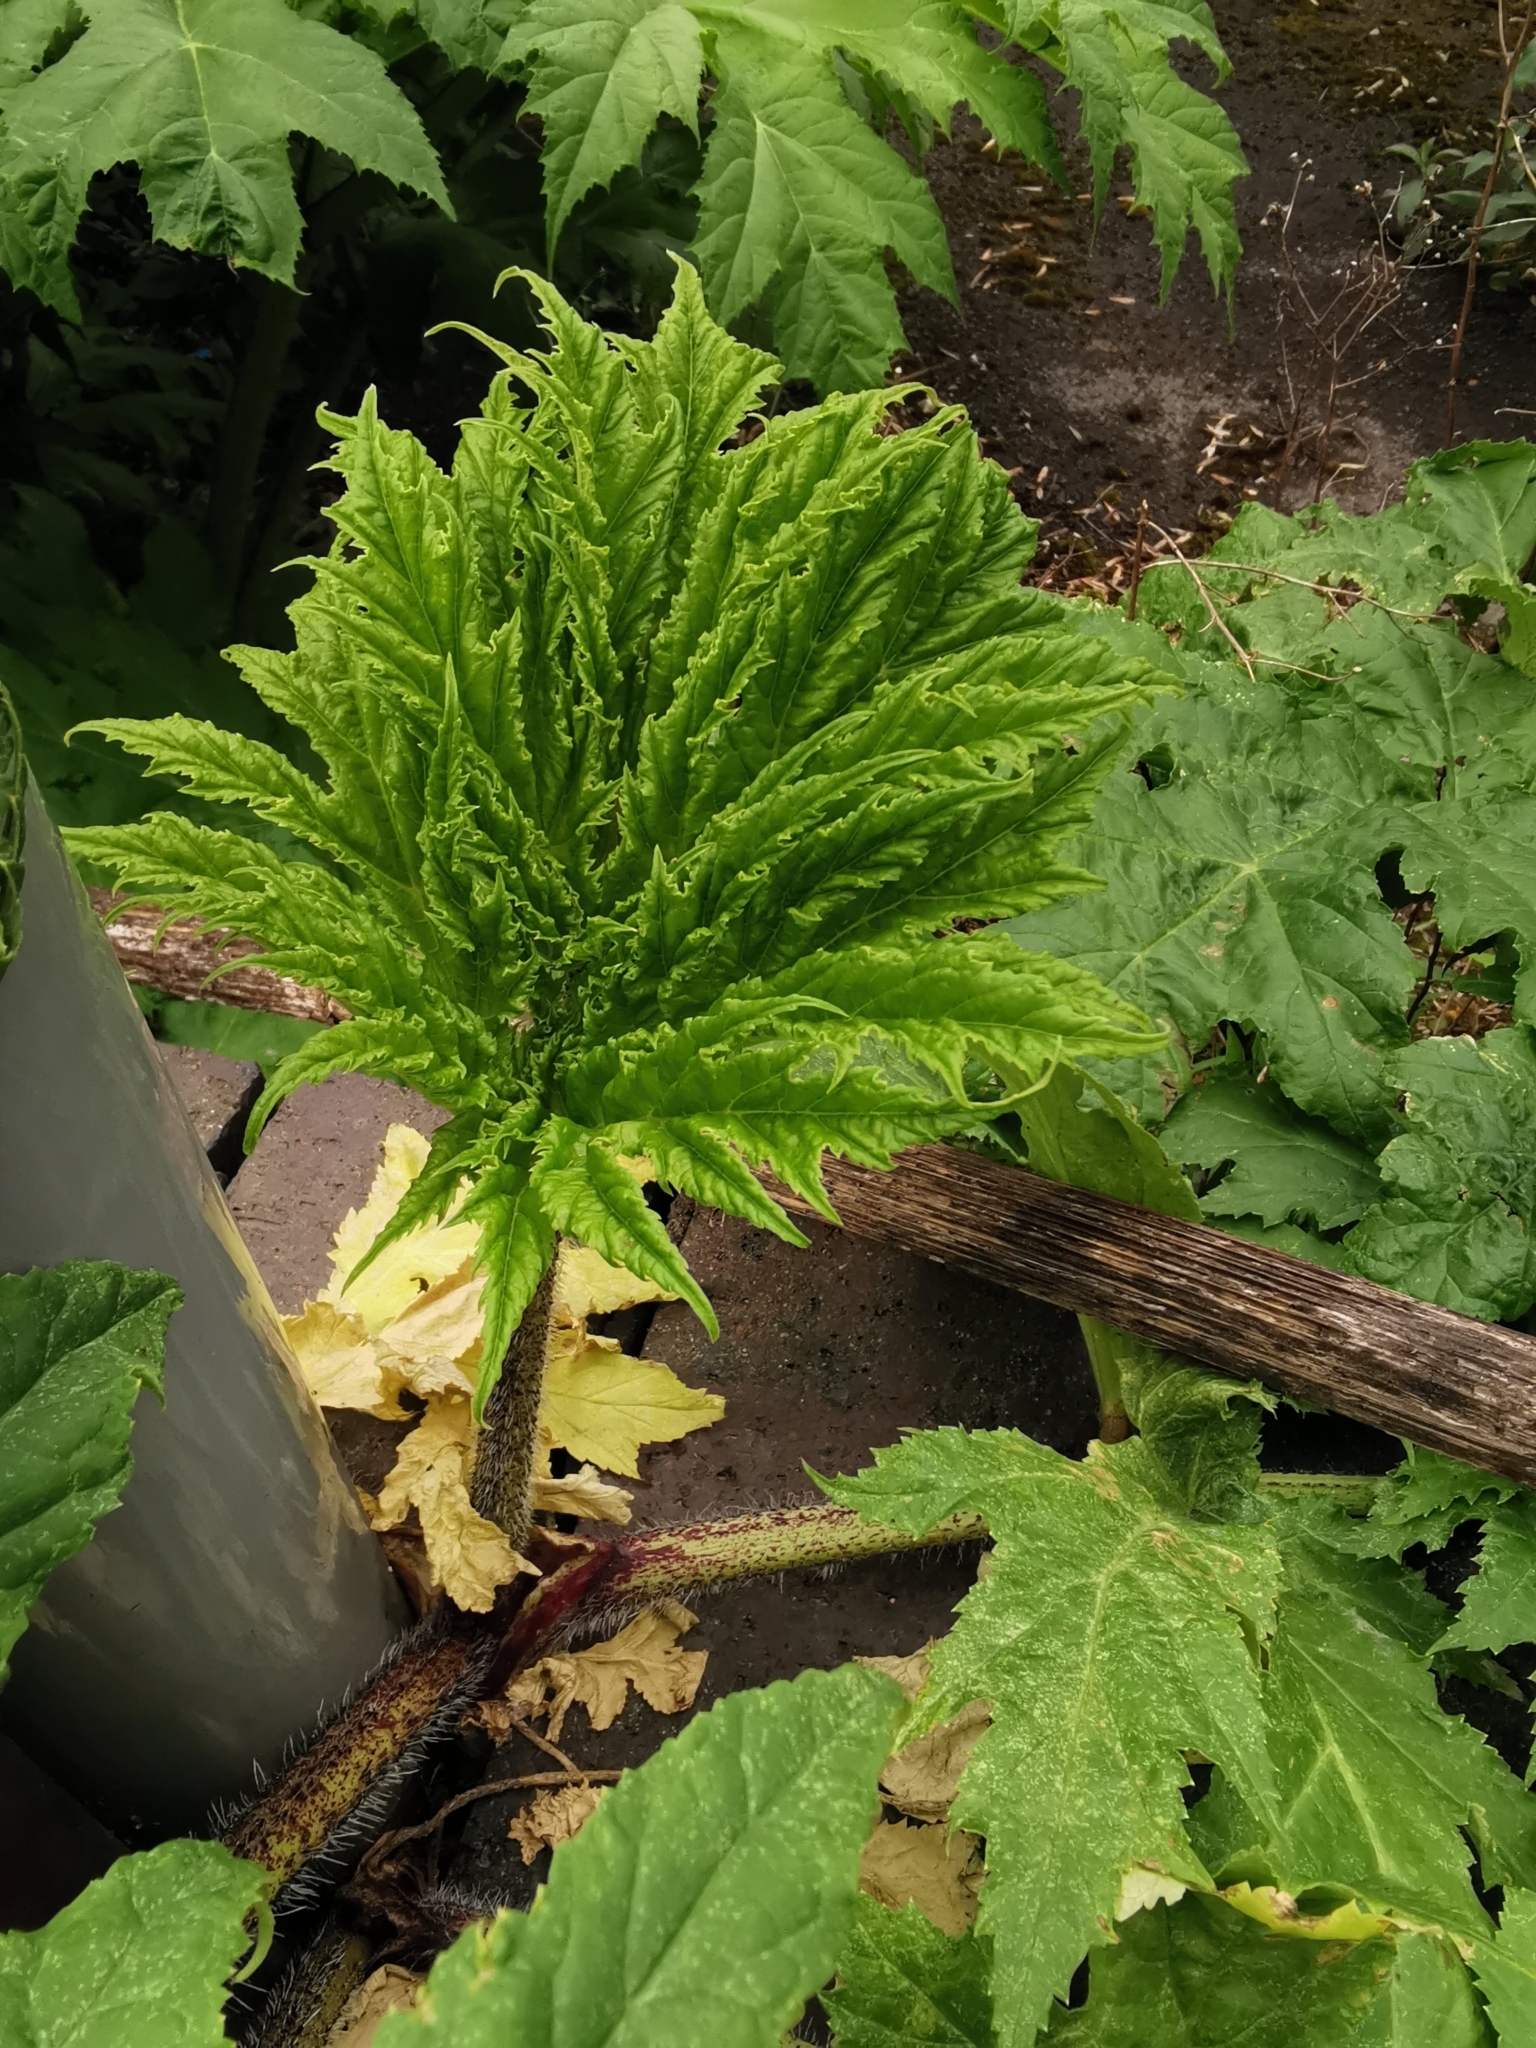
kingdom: Plantae
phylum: Tracheophyta
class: Magnoliopsida
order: Apiales
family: Apiaceae
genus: Heracleum
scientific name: Heracleum mantegazzianum
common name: Giant hogweed
